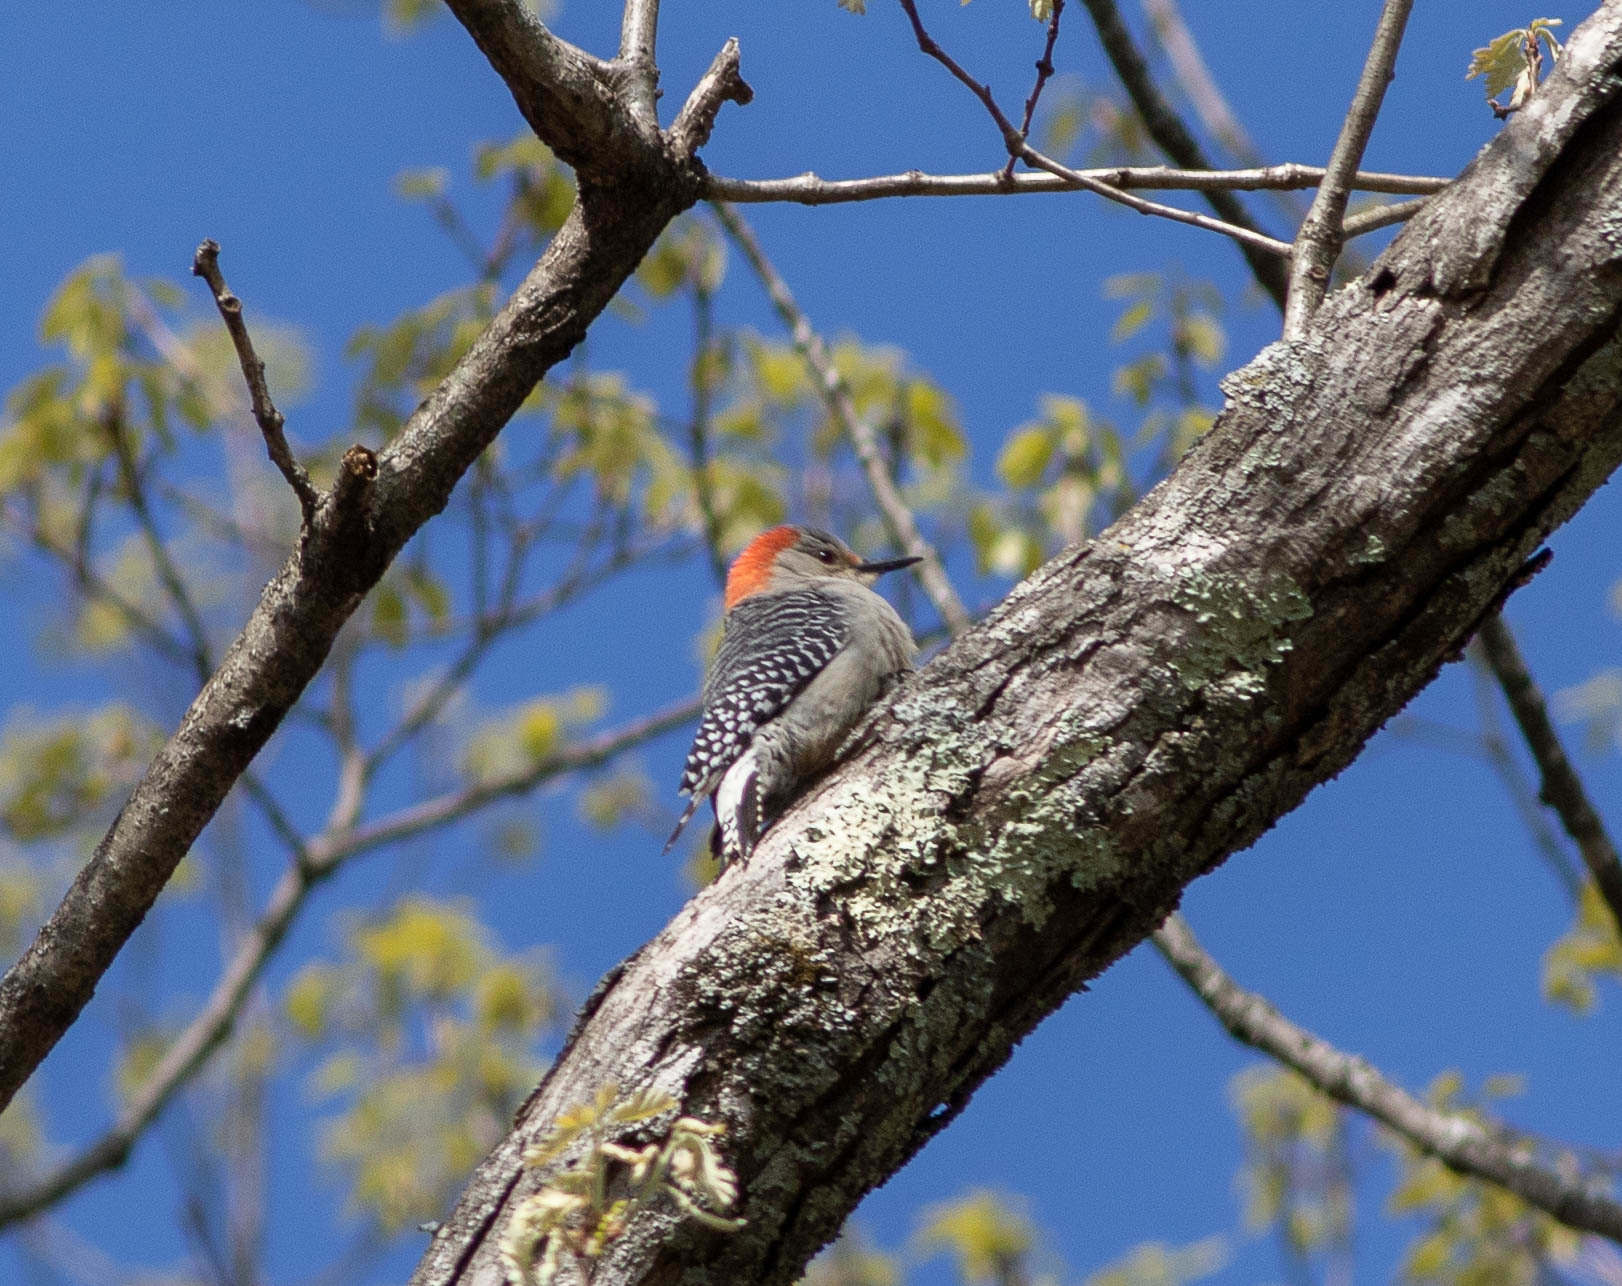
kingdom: Animalia
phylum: Chordata
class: Aves
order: Piciformes
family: Picidae
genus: Melanerpes
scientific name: Melanerpes carolinus
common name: Red-bellied woodpecker
